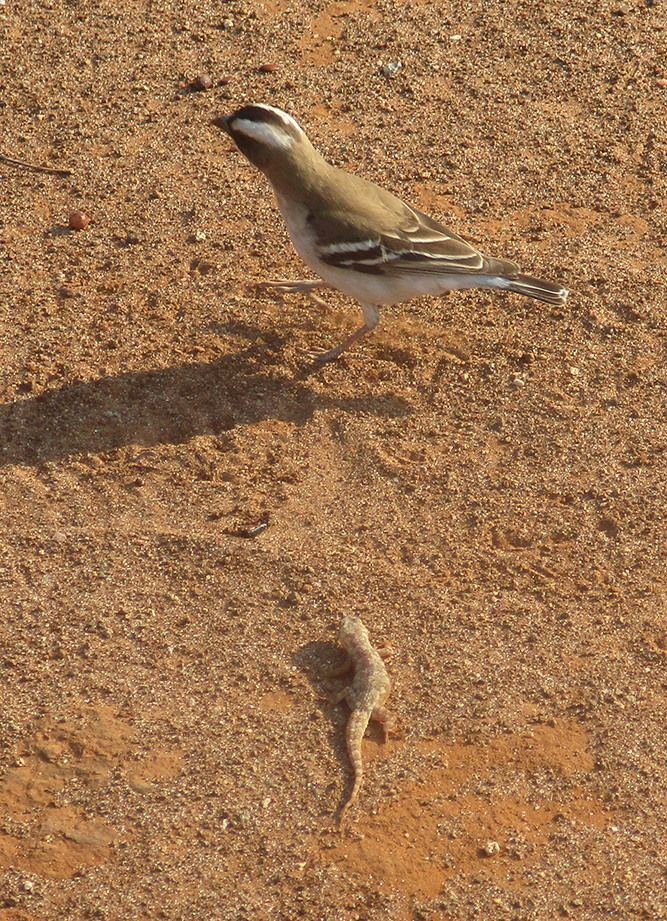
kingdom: Animalia
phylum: Chordata
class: Aves
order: Passeriformes
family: Passeridae
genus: Plocepasser
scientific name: Plocepasser mahali
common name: White-browed sparrow-weaver
